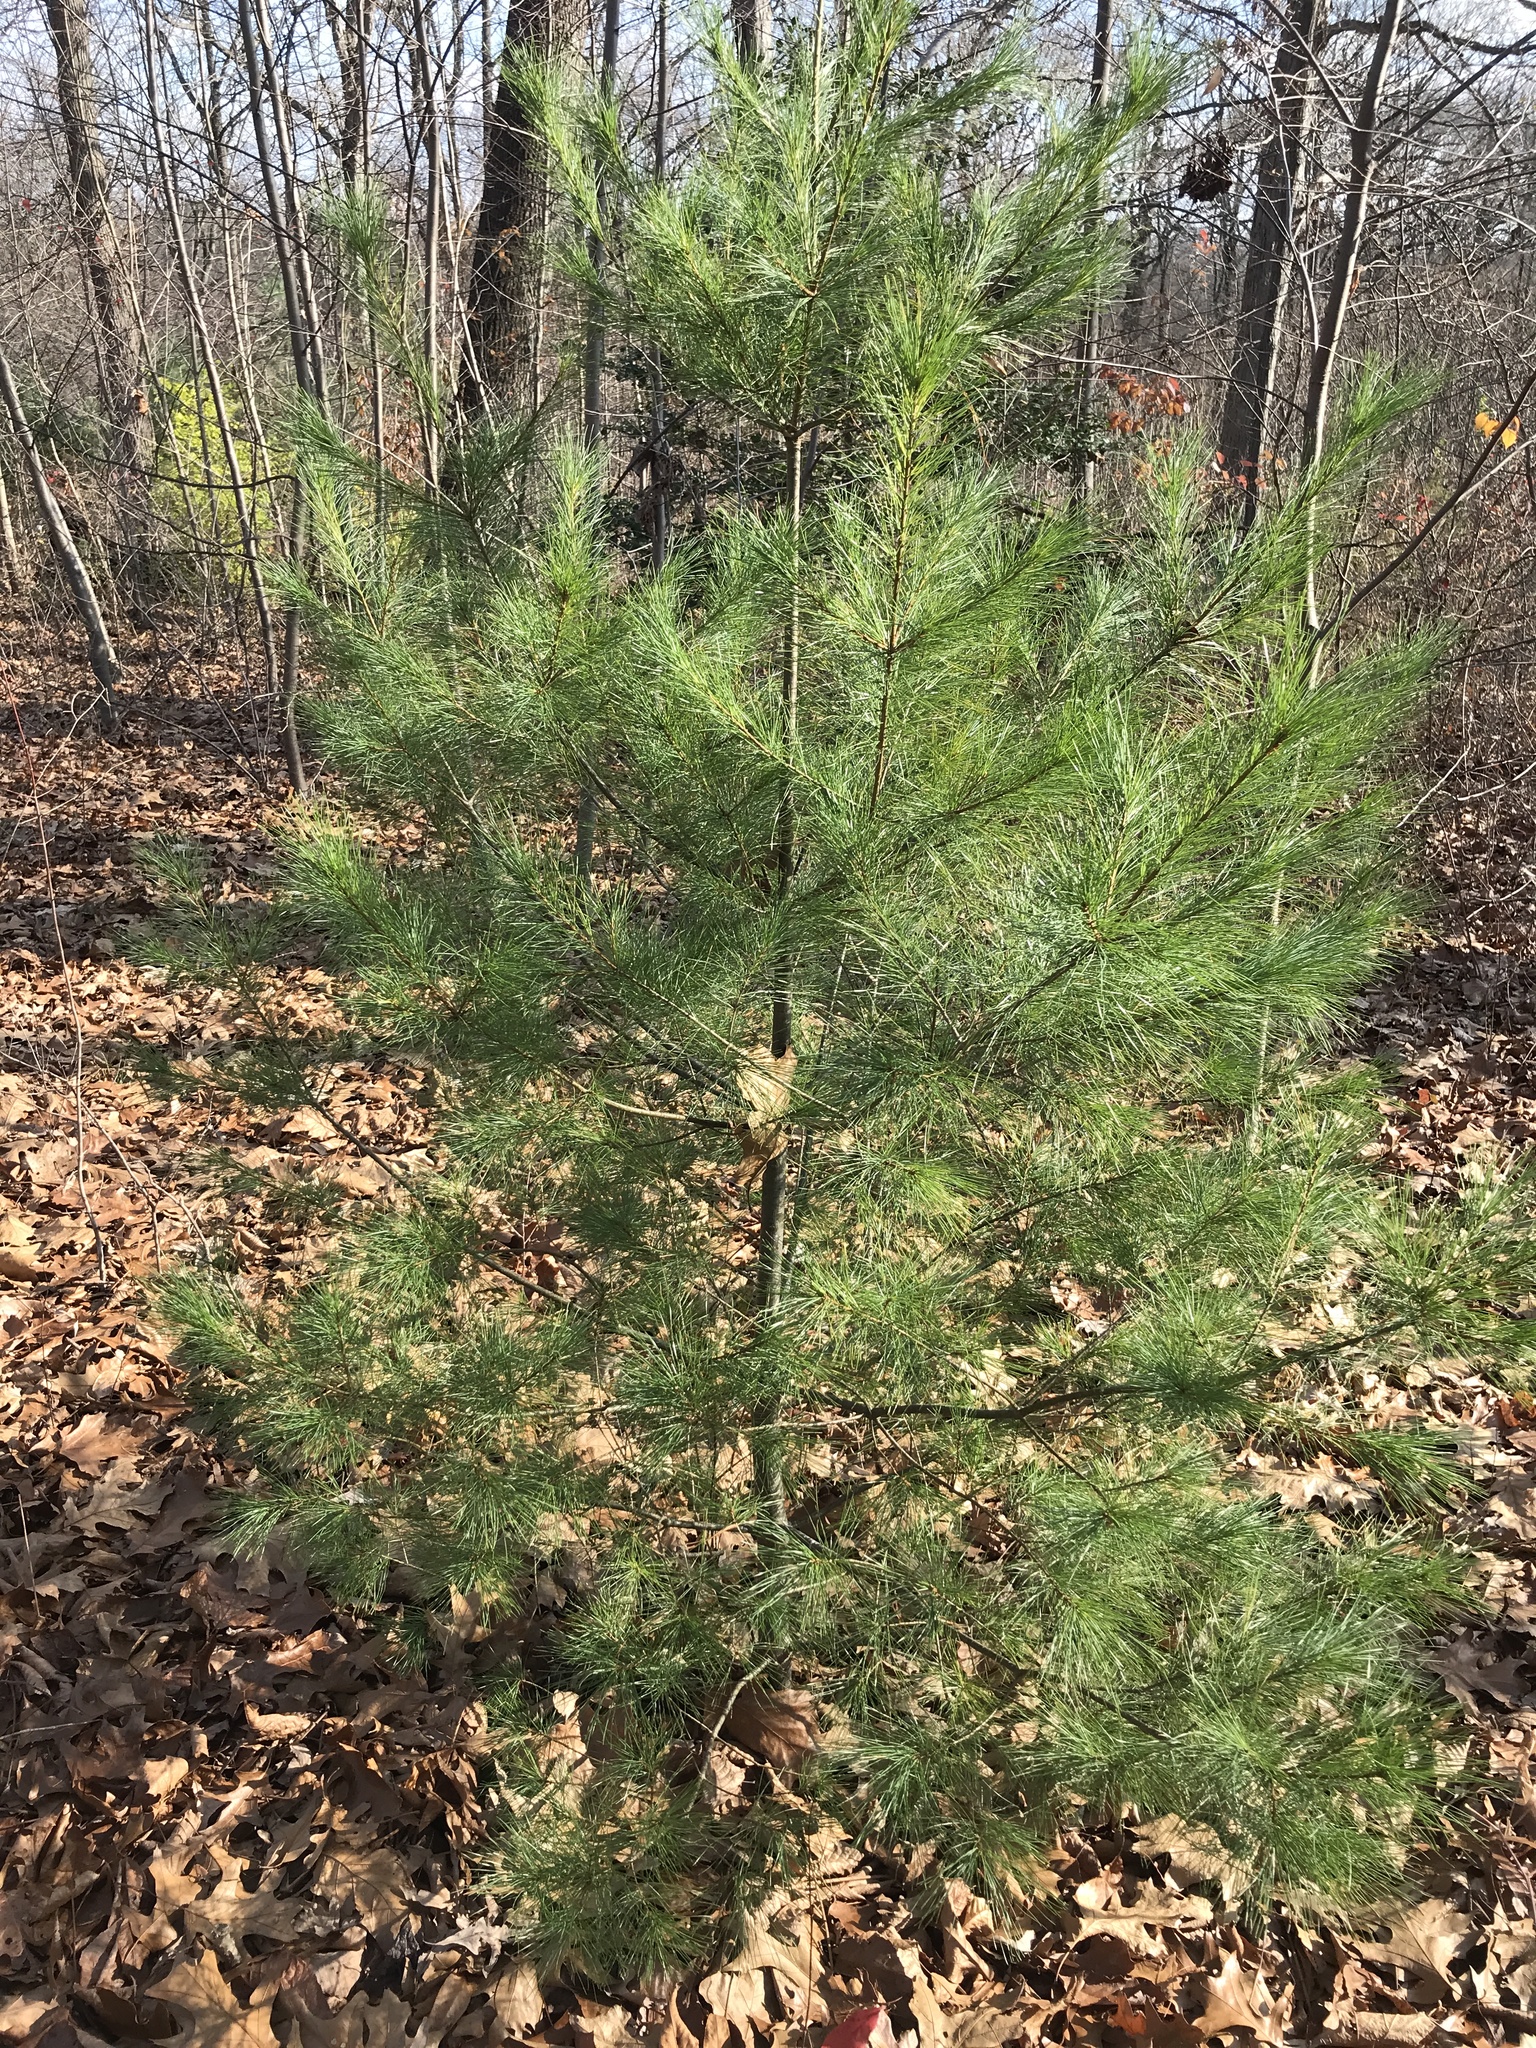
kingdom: Plantae
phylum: Tracheophyta
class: Pinopsida
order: Pinales
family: Pinaceae
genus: Pinus
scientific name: Pinus strobus
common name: Weymouth pine
